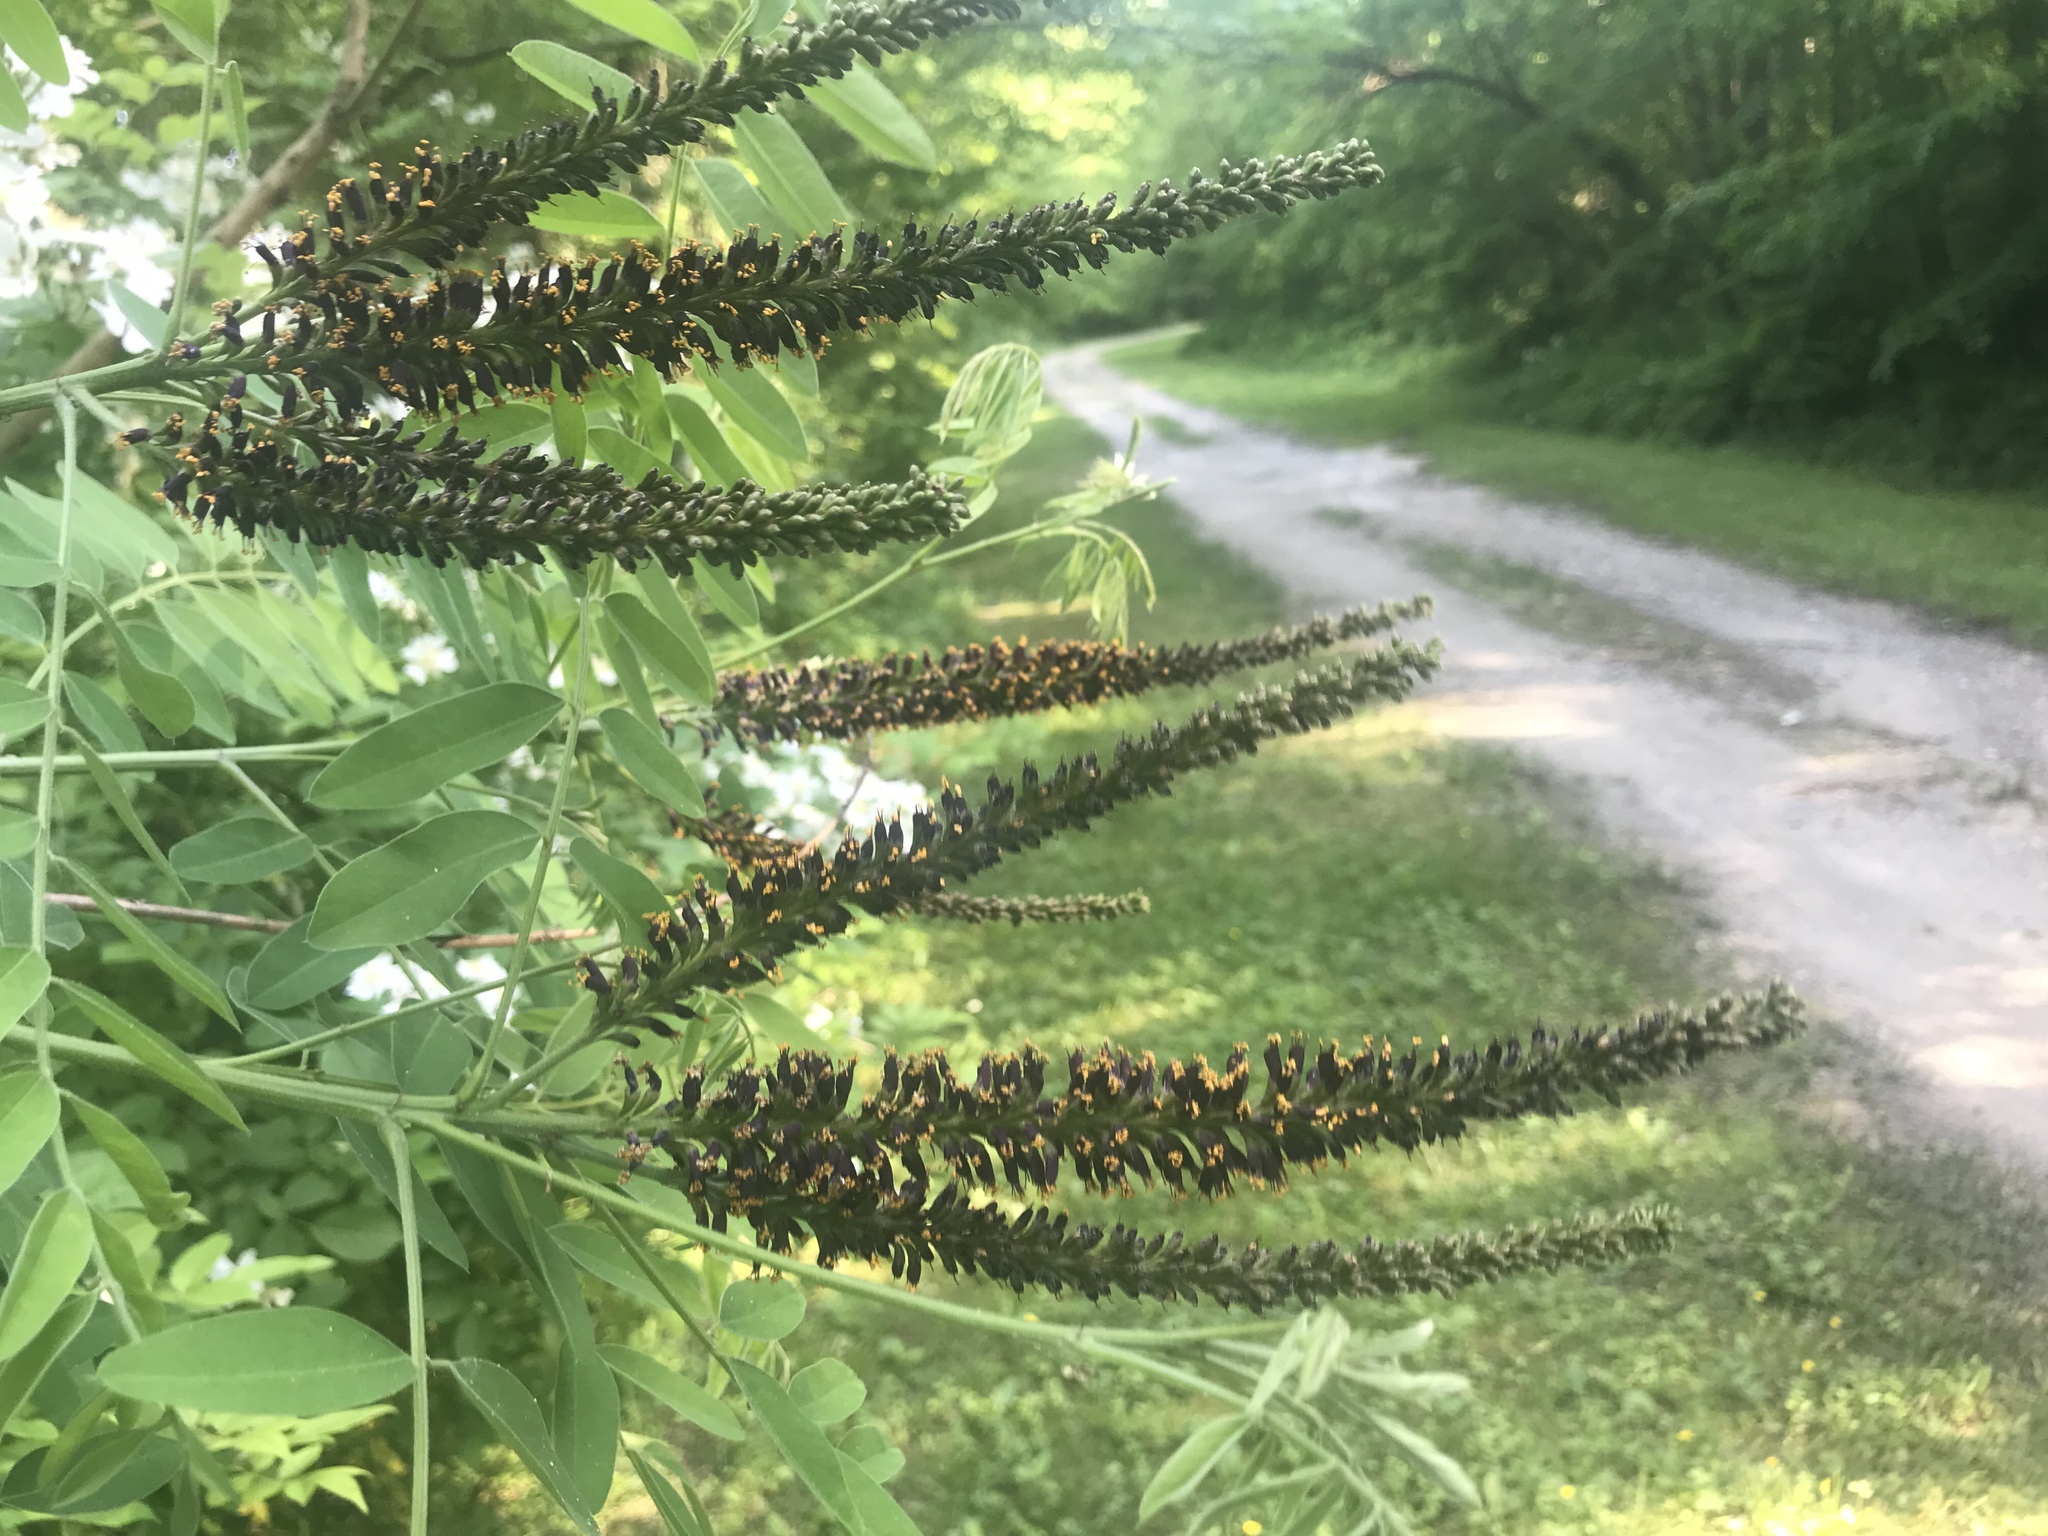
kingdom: Plantae
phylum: Tracheophyta
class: Magnoliopsida
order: Fabales
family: Fabaceae
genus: Amorpha
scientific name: Amorpha fruticosa
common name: False indigo
